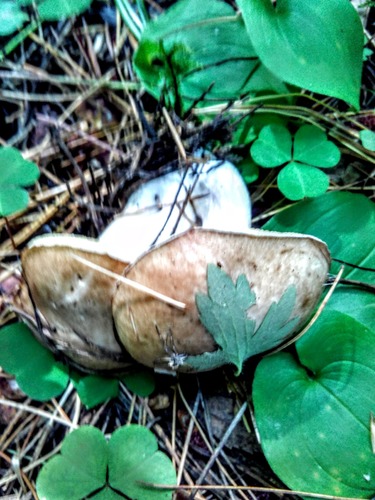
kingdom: Fungi
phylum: Basidiomycota
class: Agaricomycetes
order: Boletales
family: Suillaceae
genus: Suillus
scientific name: Suillus placidus
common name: Slippery white bolete
